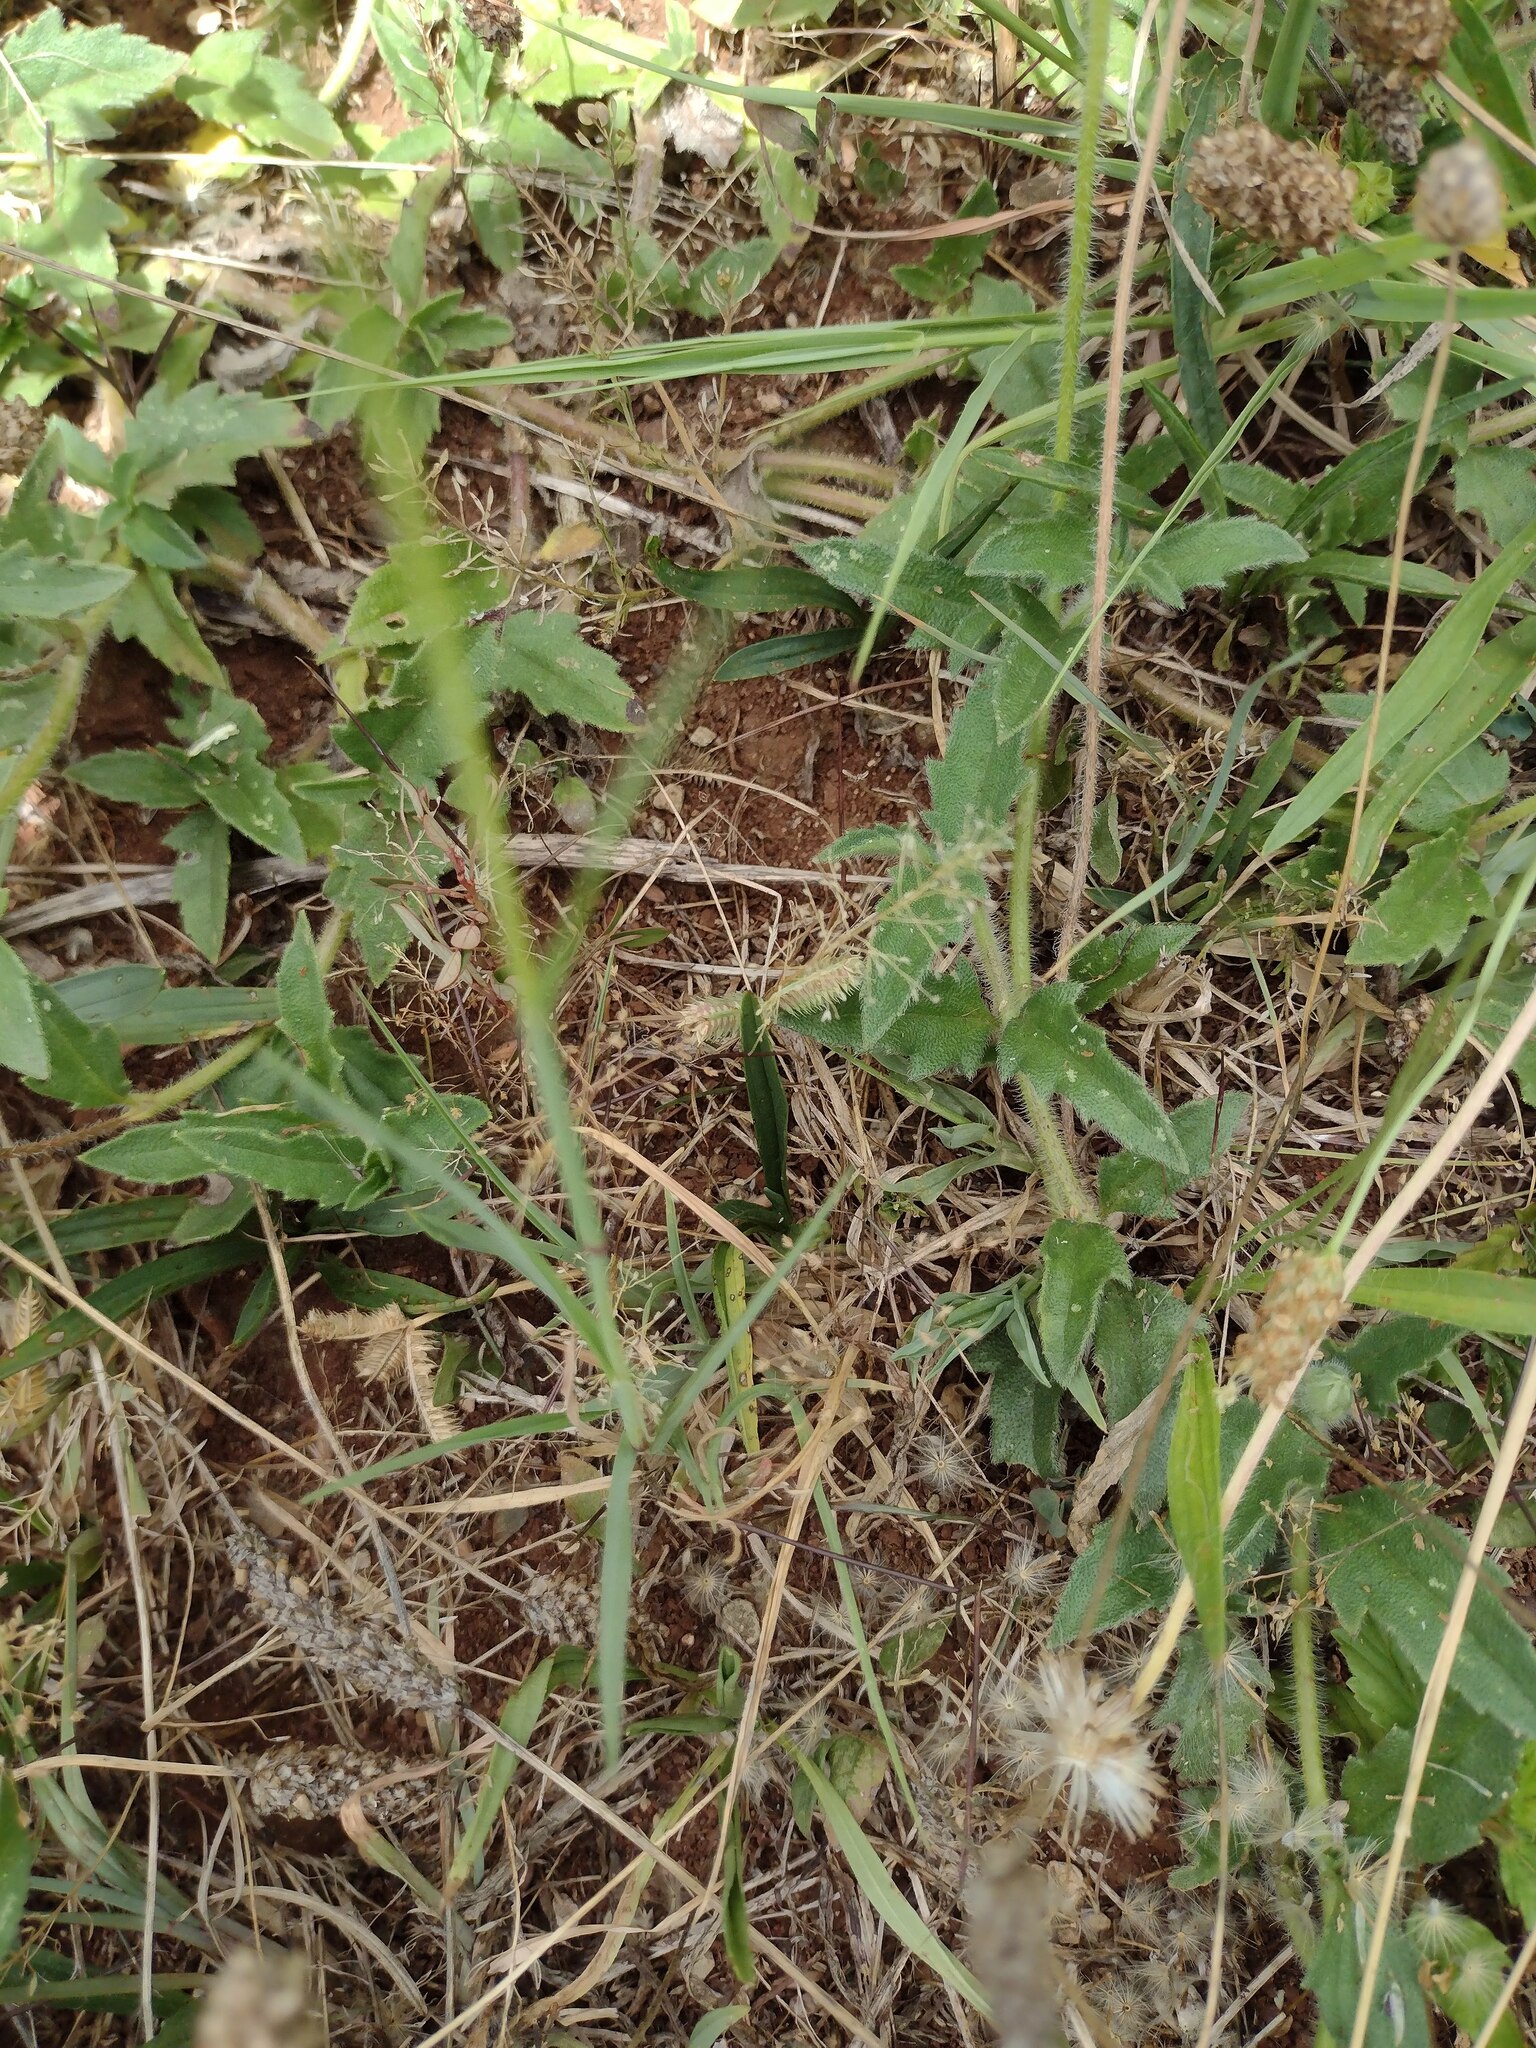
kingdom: Plantae
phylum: Tracheophyta
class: Liliopsida
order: Poales
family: Poaceae
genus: Eragrostis
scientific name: Eragrostis tenella
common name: Japanese lovegrass
